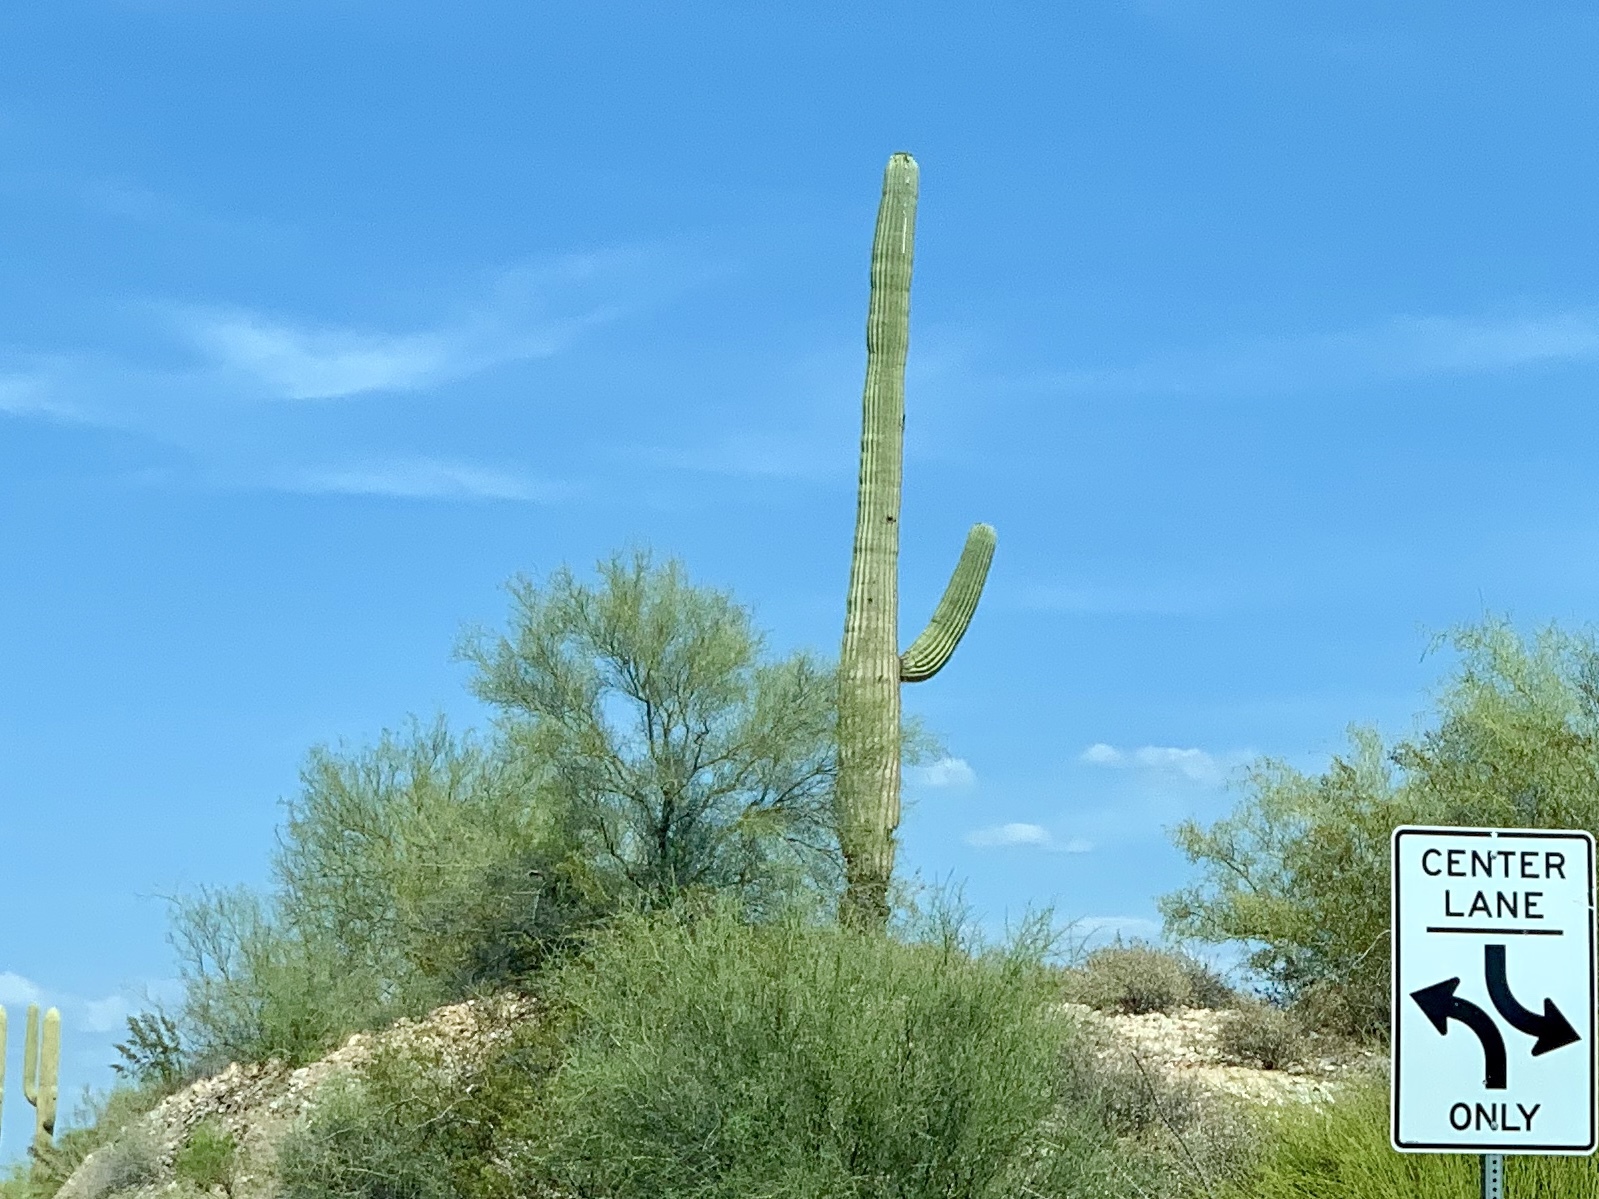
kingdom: Plantae
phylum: Tracheophyta
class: Magnoliopsida
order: Caryophyllales
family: Cactaceae
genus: Carnegiea
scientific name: Carnegiea gigantea
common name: Saguaro
